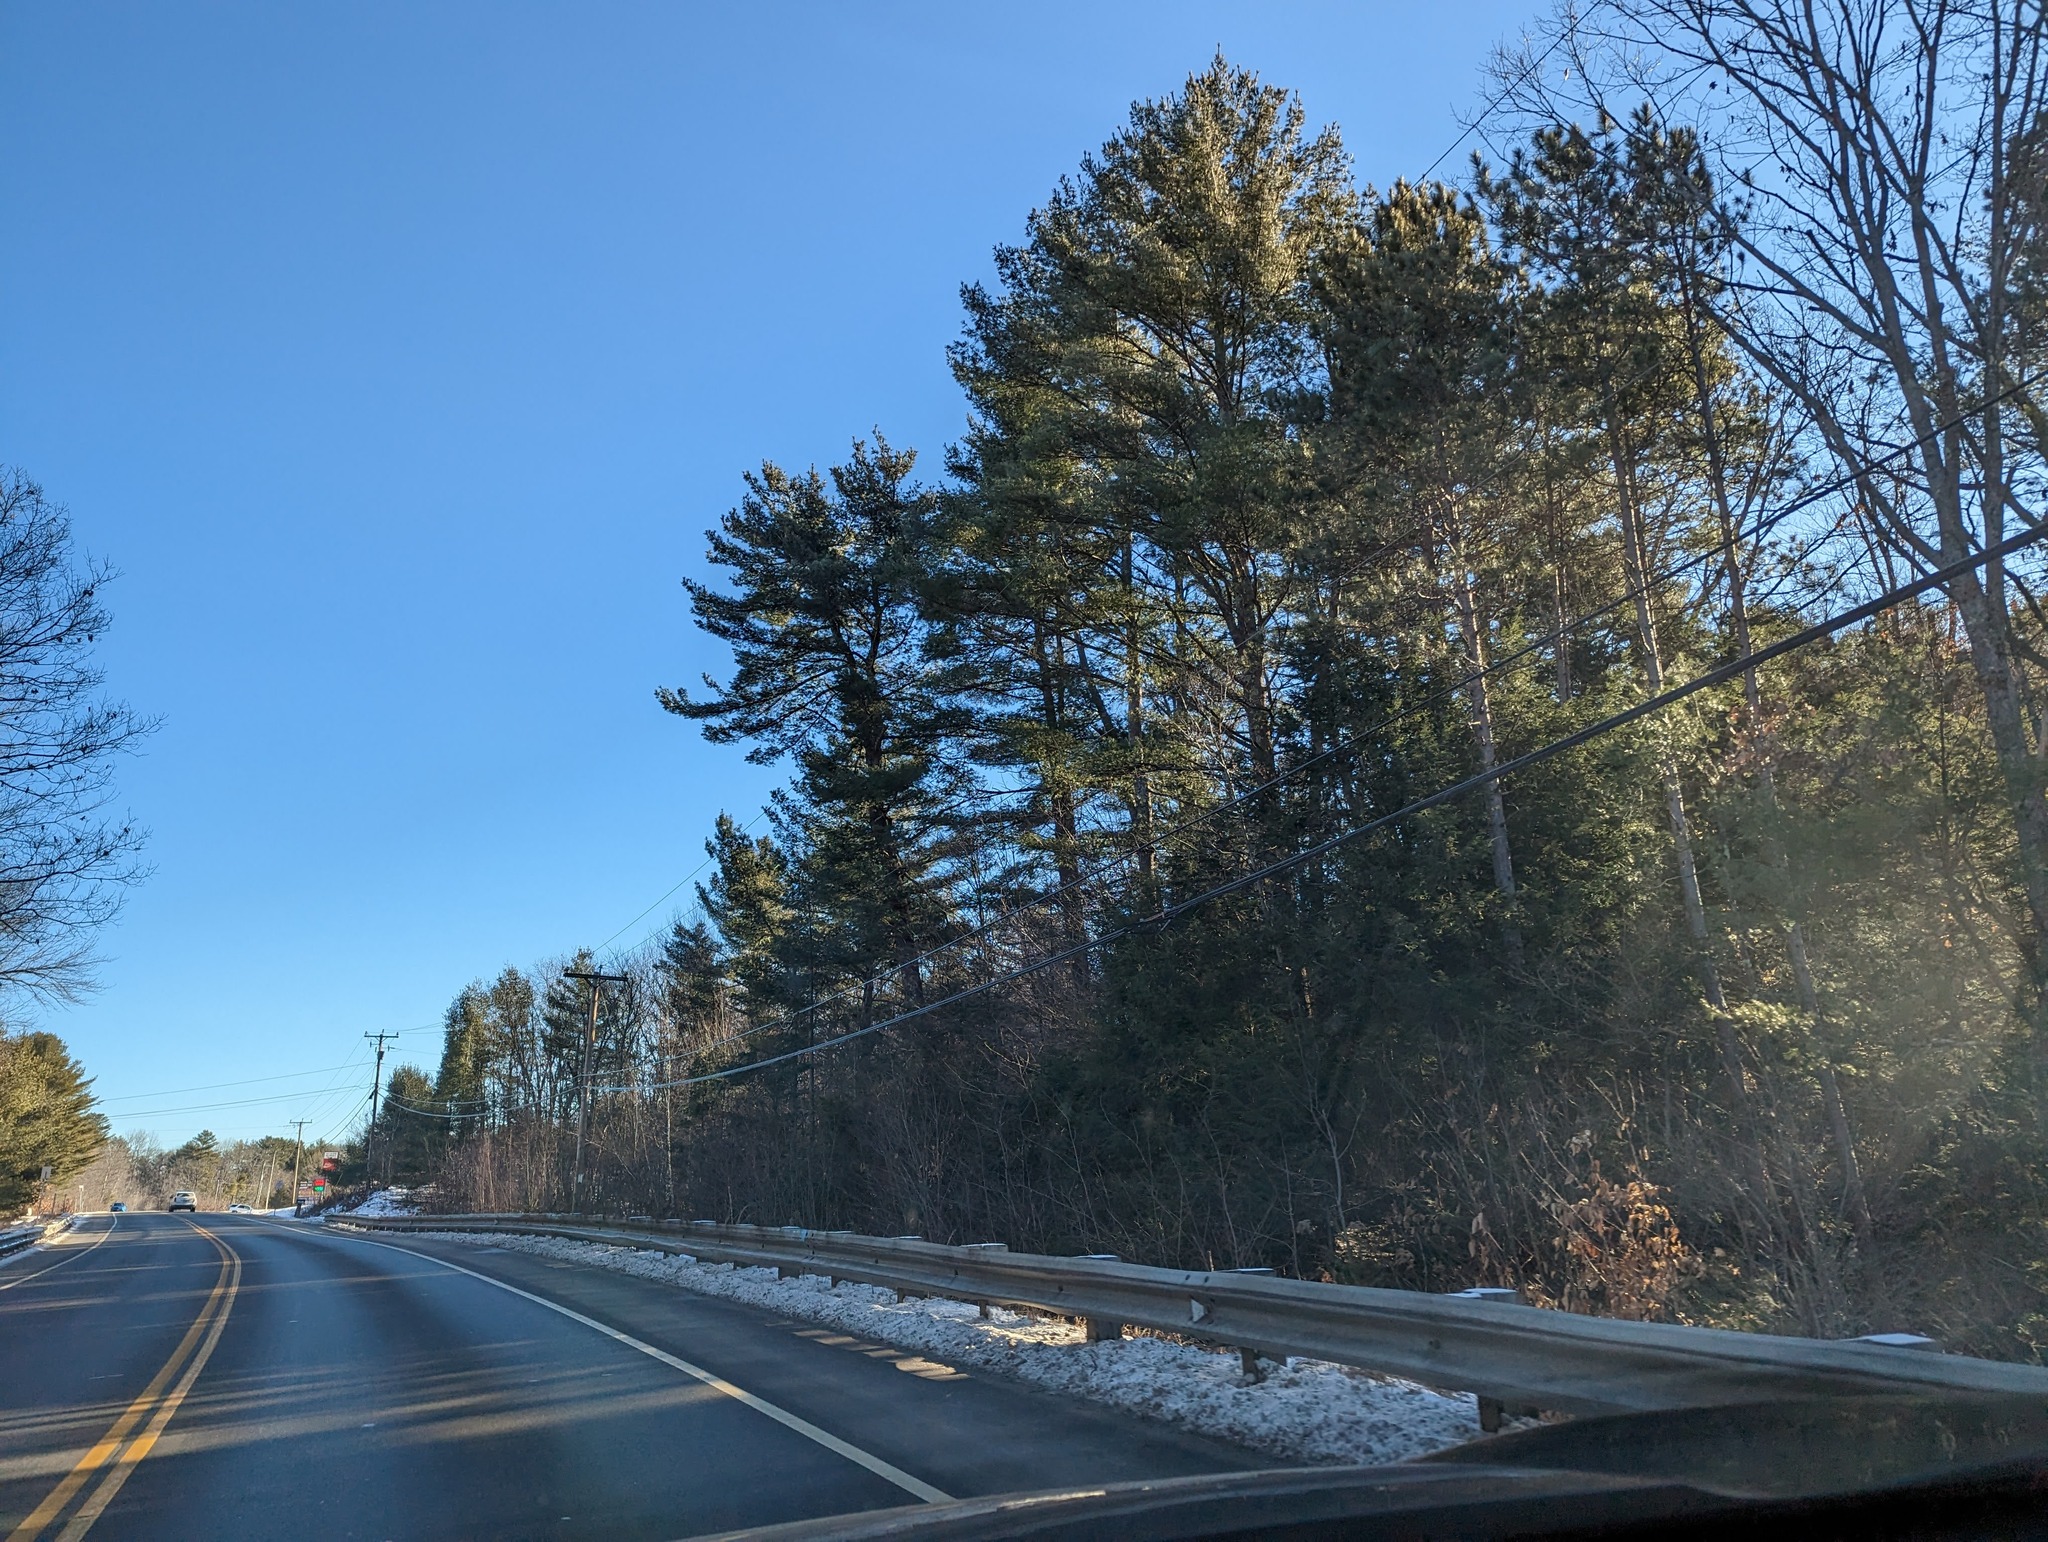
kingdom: Plantae
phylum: Tracheophyta
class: Pinopsida
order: Pinales
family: Pinaceae
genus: Pinus
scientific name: Pinus strobus
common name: Weymouth pine
